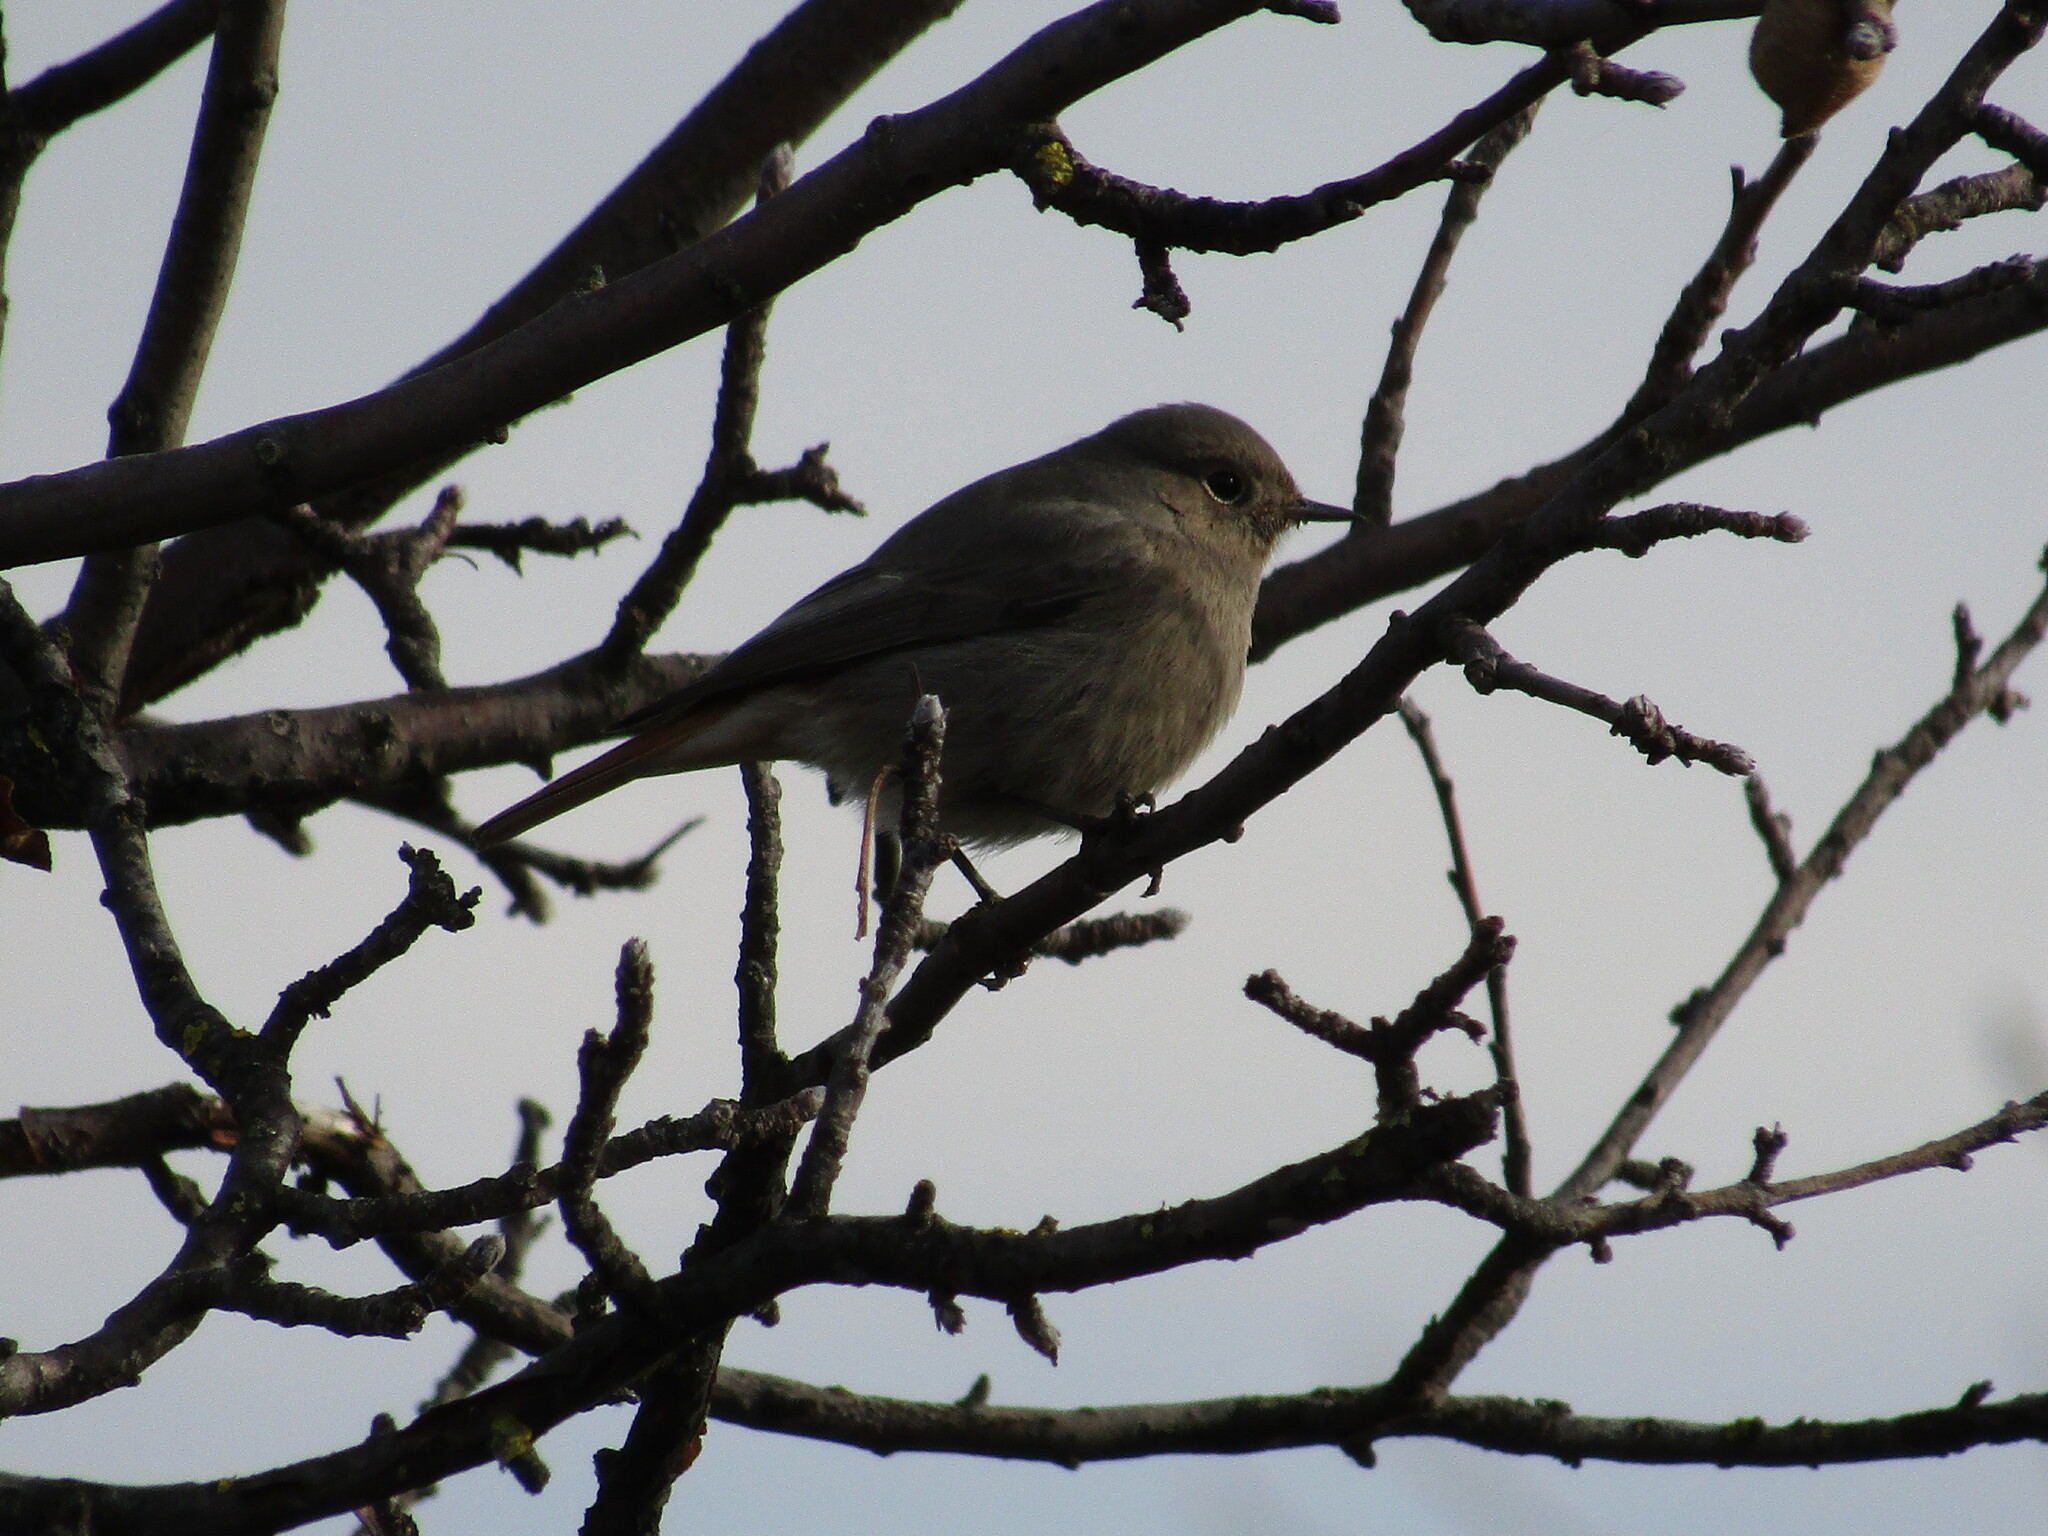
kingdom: Animalia
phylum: Chordata
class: Aves
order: Passeriformes
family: Muscicapidae
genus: Phoenicurus
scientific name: Phoenicurus ochruros
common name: Black redstart
